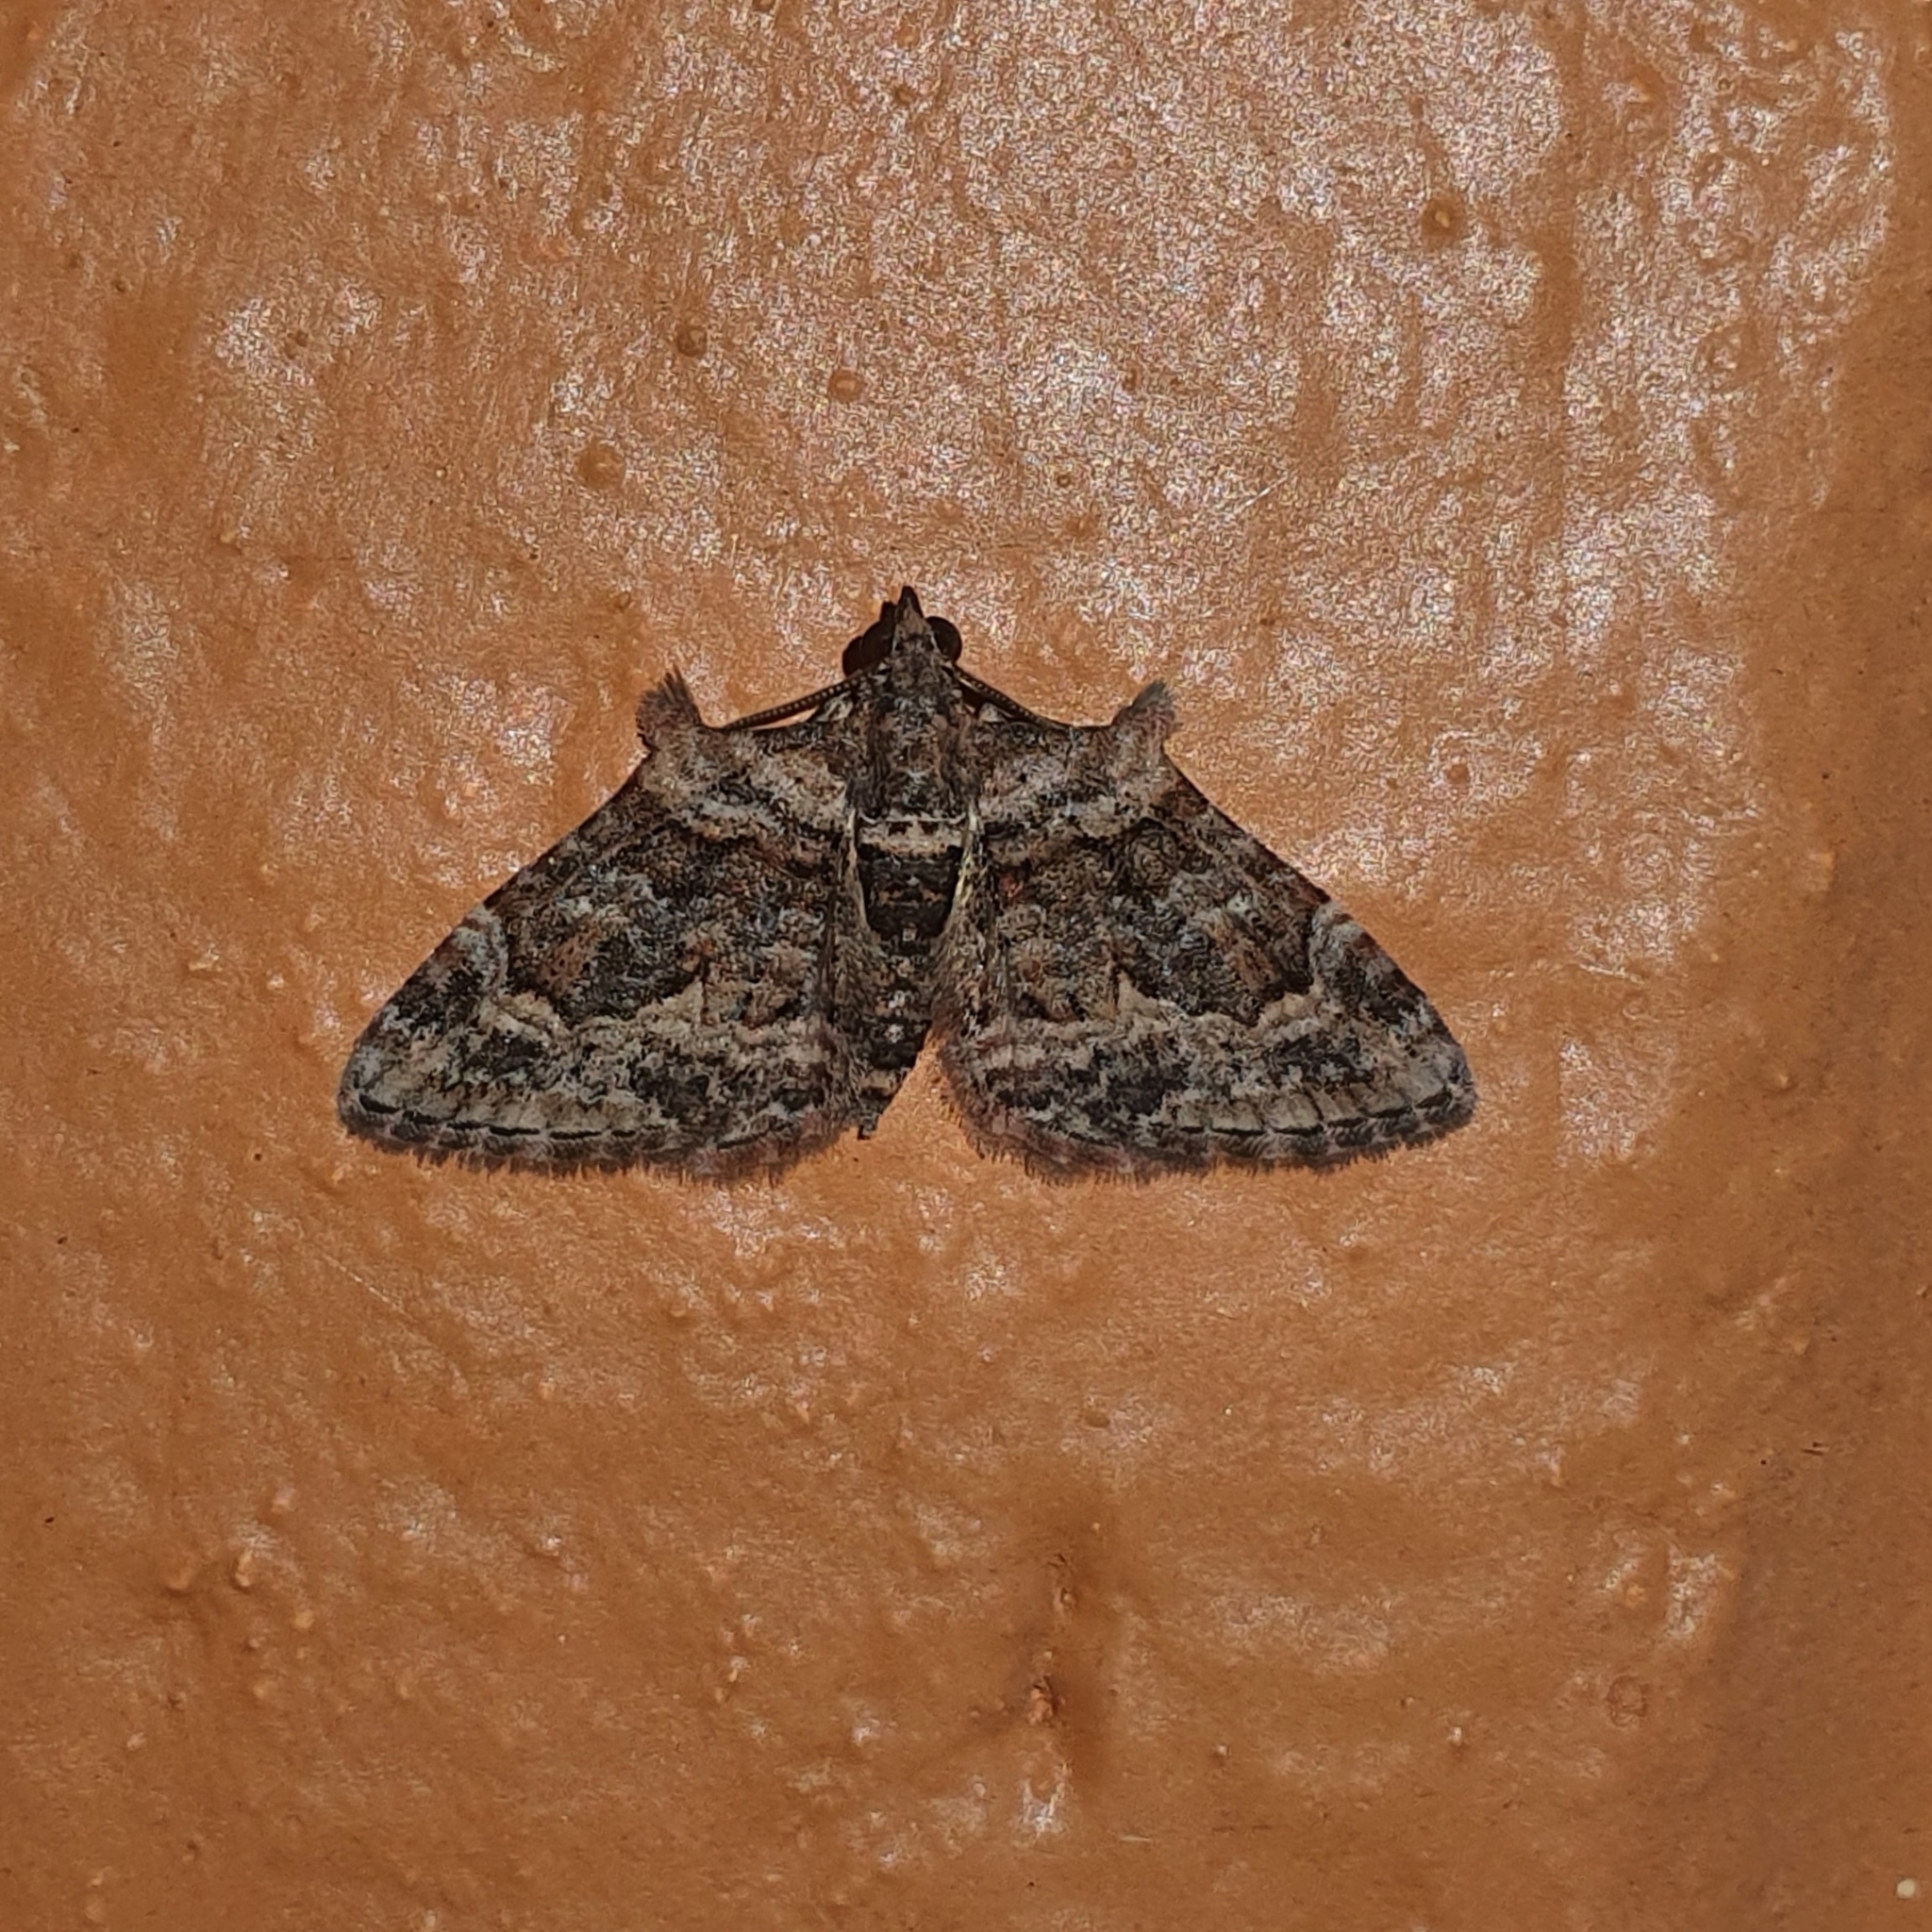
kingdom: Animalia
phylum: Arthropoda
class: Insecta
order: Lepidoptera
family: Geometridae
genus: Phrissogonus
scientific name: Phrissogonus laticostata
